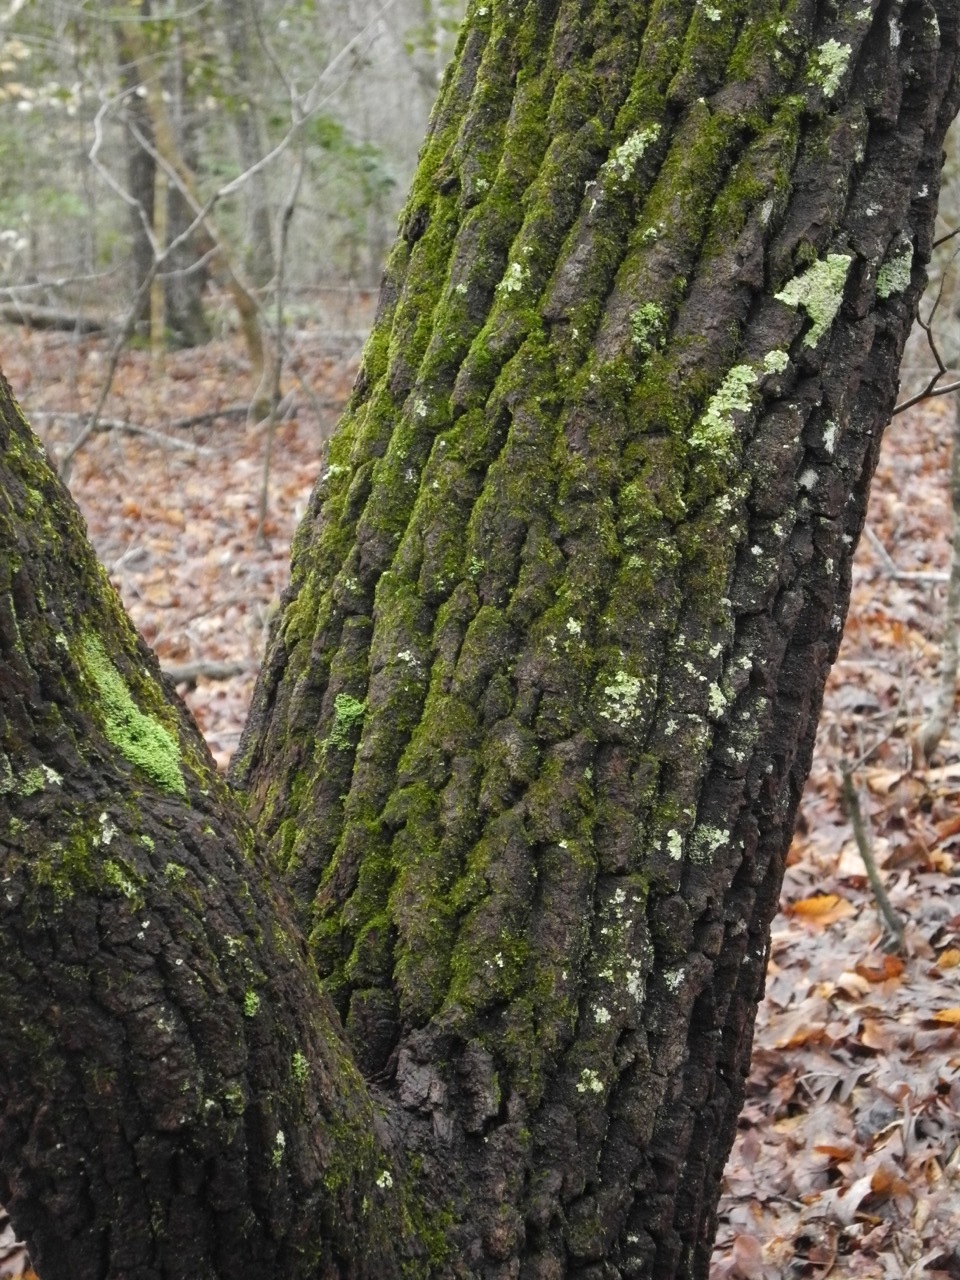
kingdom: Plantae
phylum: Tracheophyta
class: Magnoliopsida
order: Ericales
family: Ericaceae
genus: Oxydendrum
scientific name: Oxydendrum arboreum
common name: Sourwood
